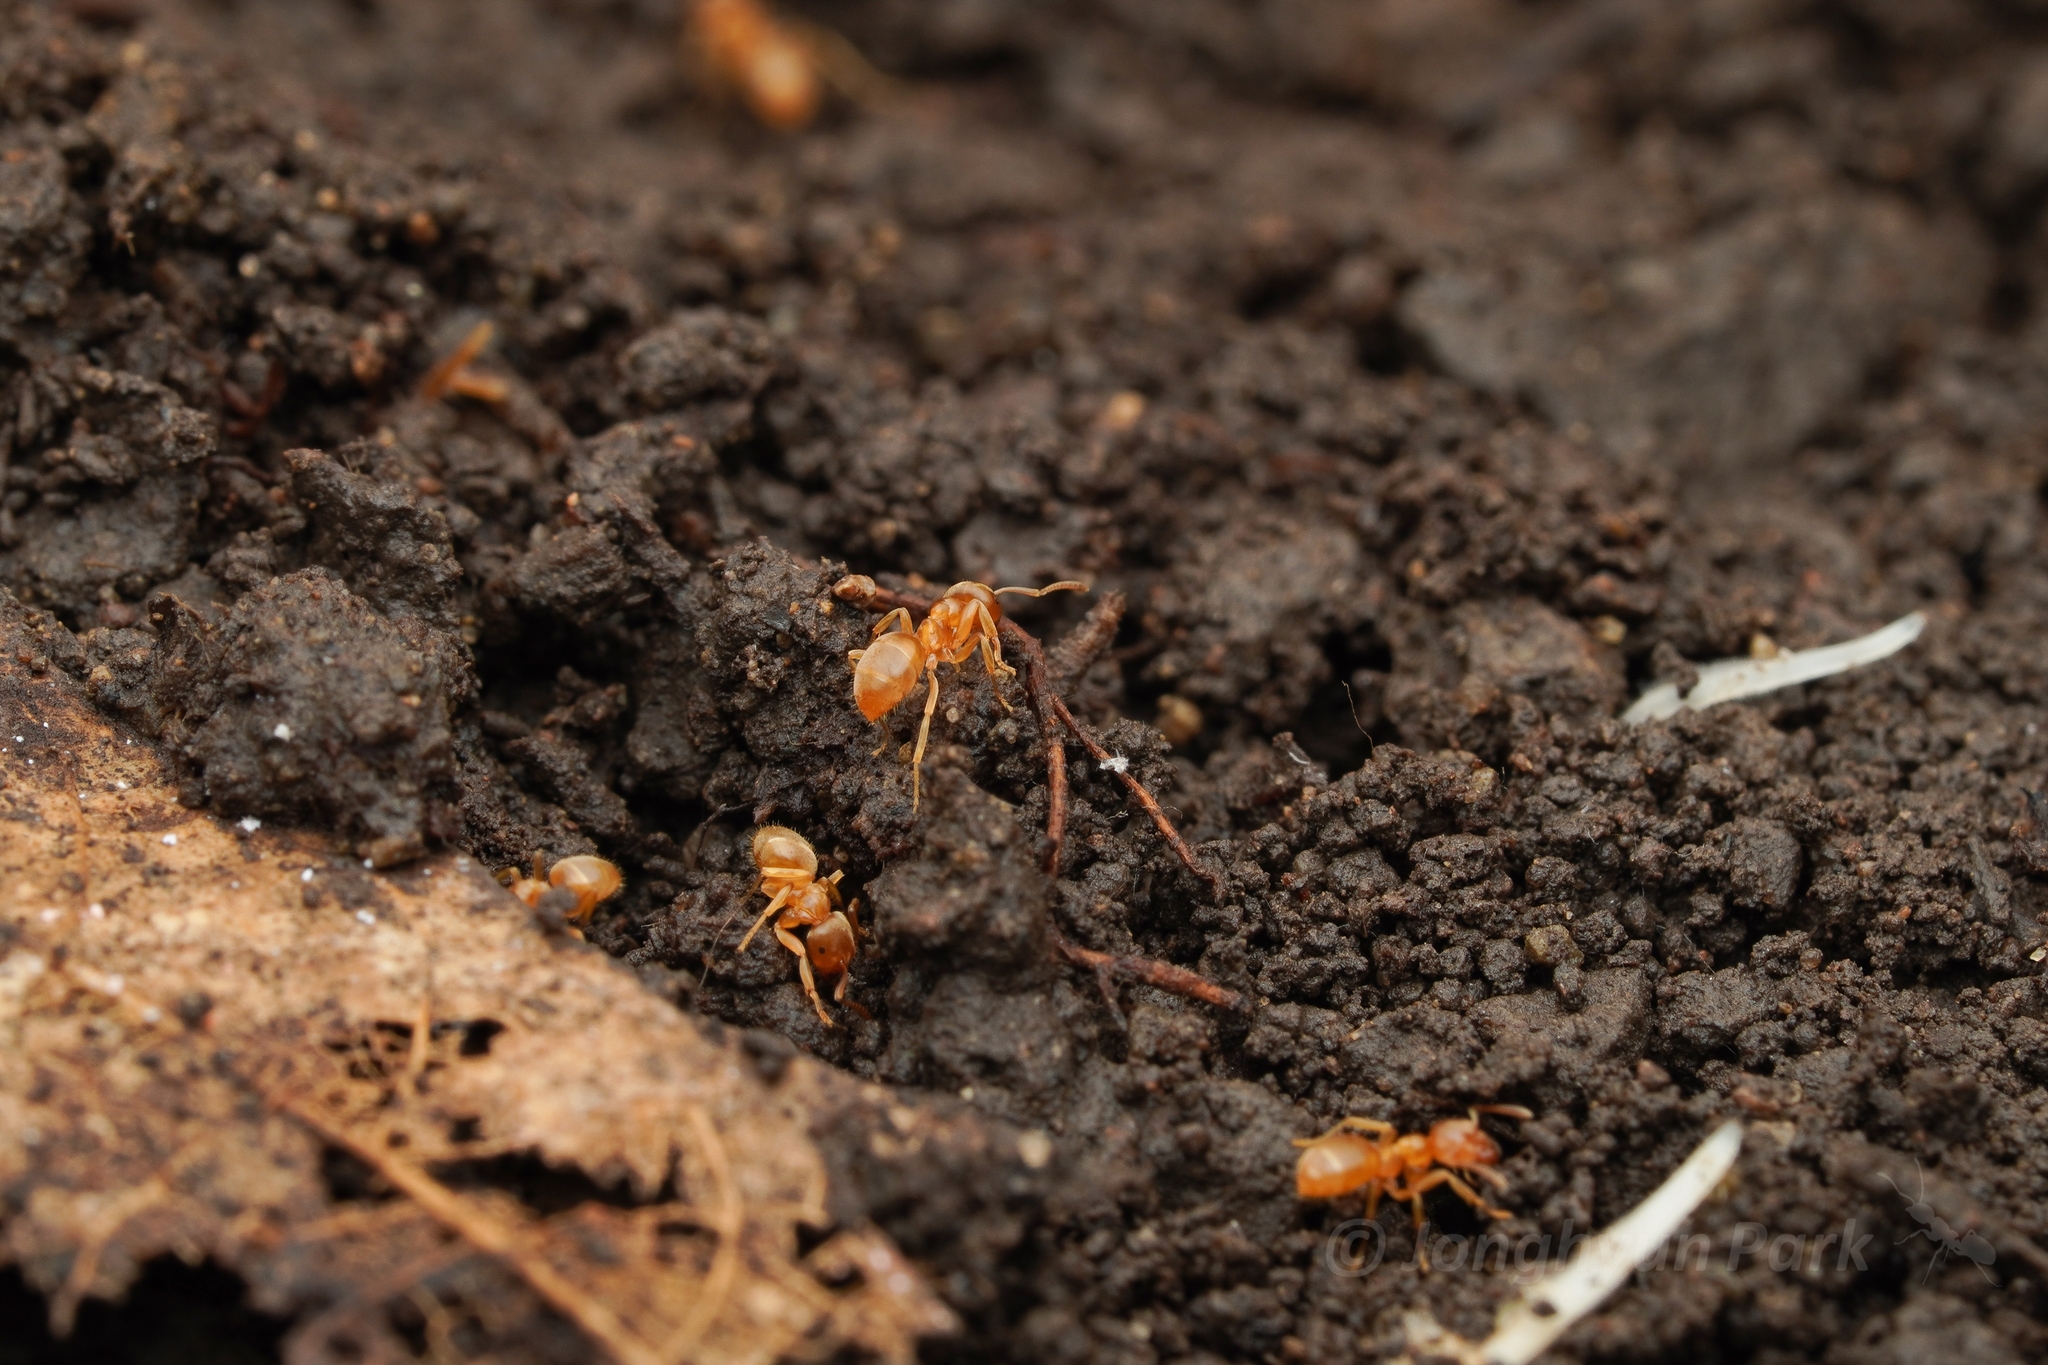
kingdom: Animalia
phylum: Arthropoda
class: Insecta
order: Hymenoptera
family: Formicidae
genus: Lasius
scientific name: Lasius flavus
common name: Blond field ant
